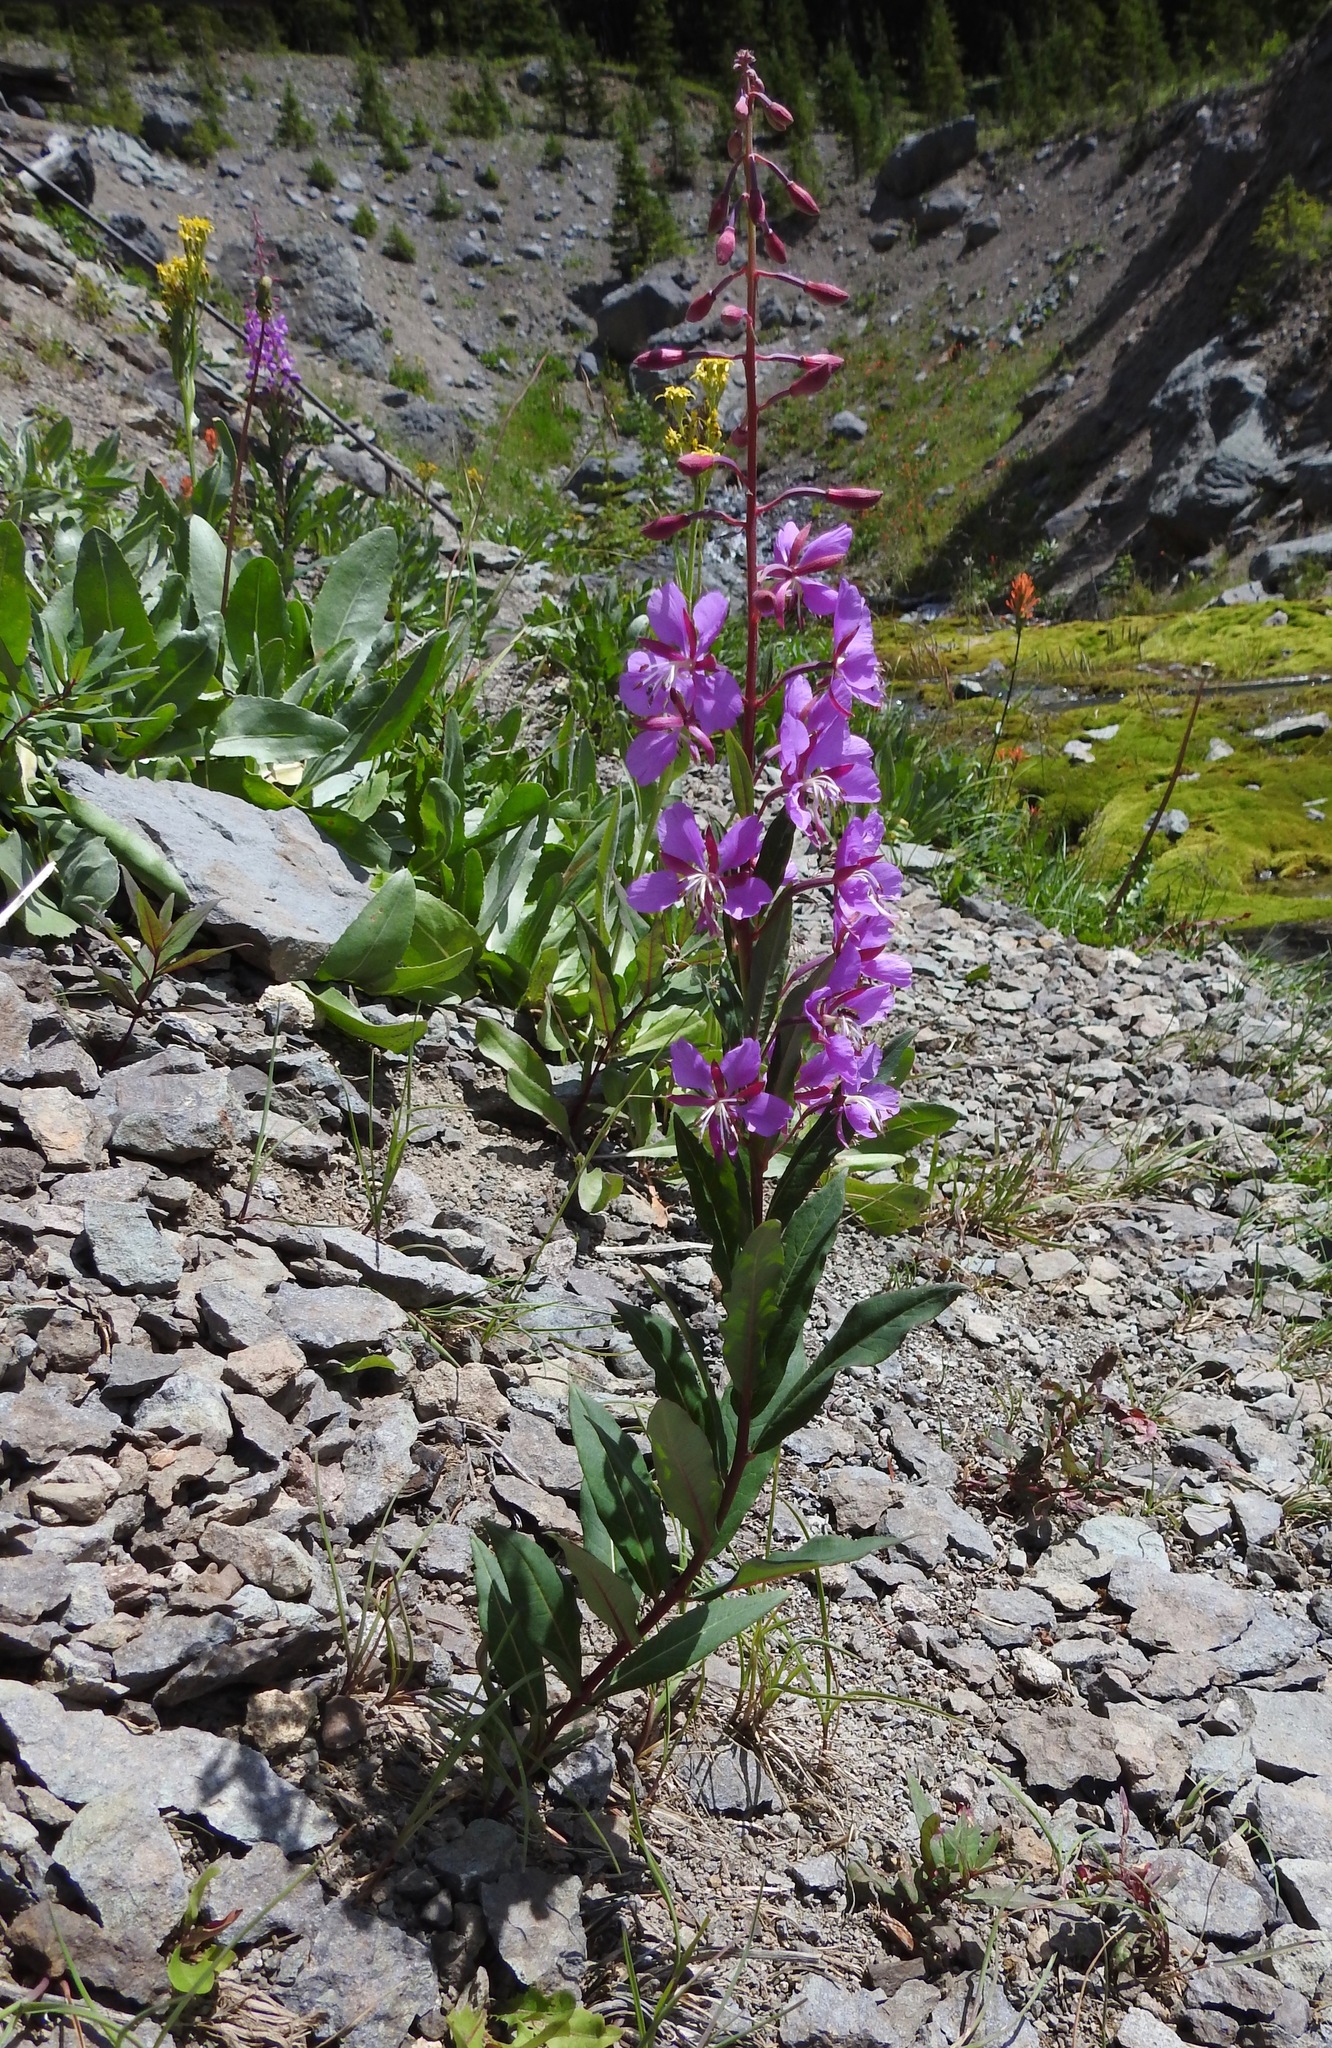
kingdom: Plantae
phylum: Tracheophyta
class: Magnoliopsida
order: Myrtales
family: Onagraceae
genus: Chamaenerion
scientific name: Chamaenerion angustifolium
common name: Fireweed
